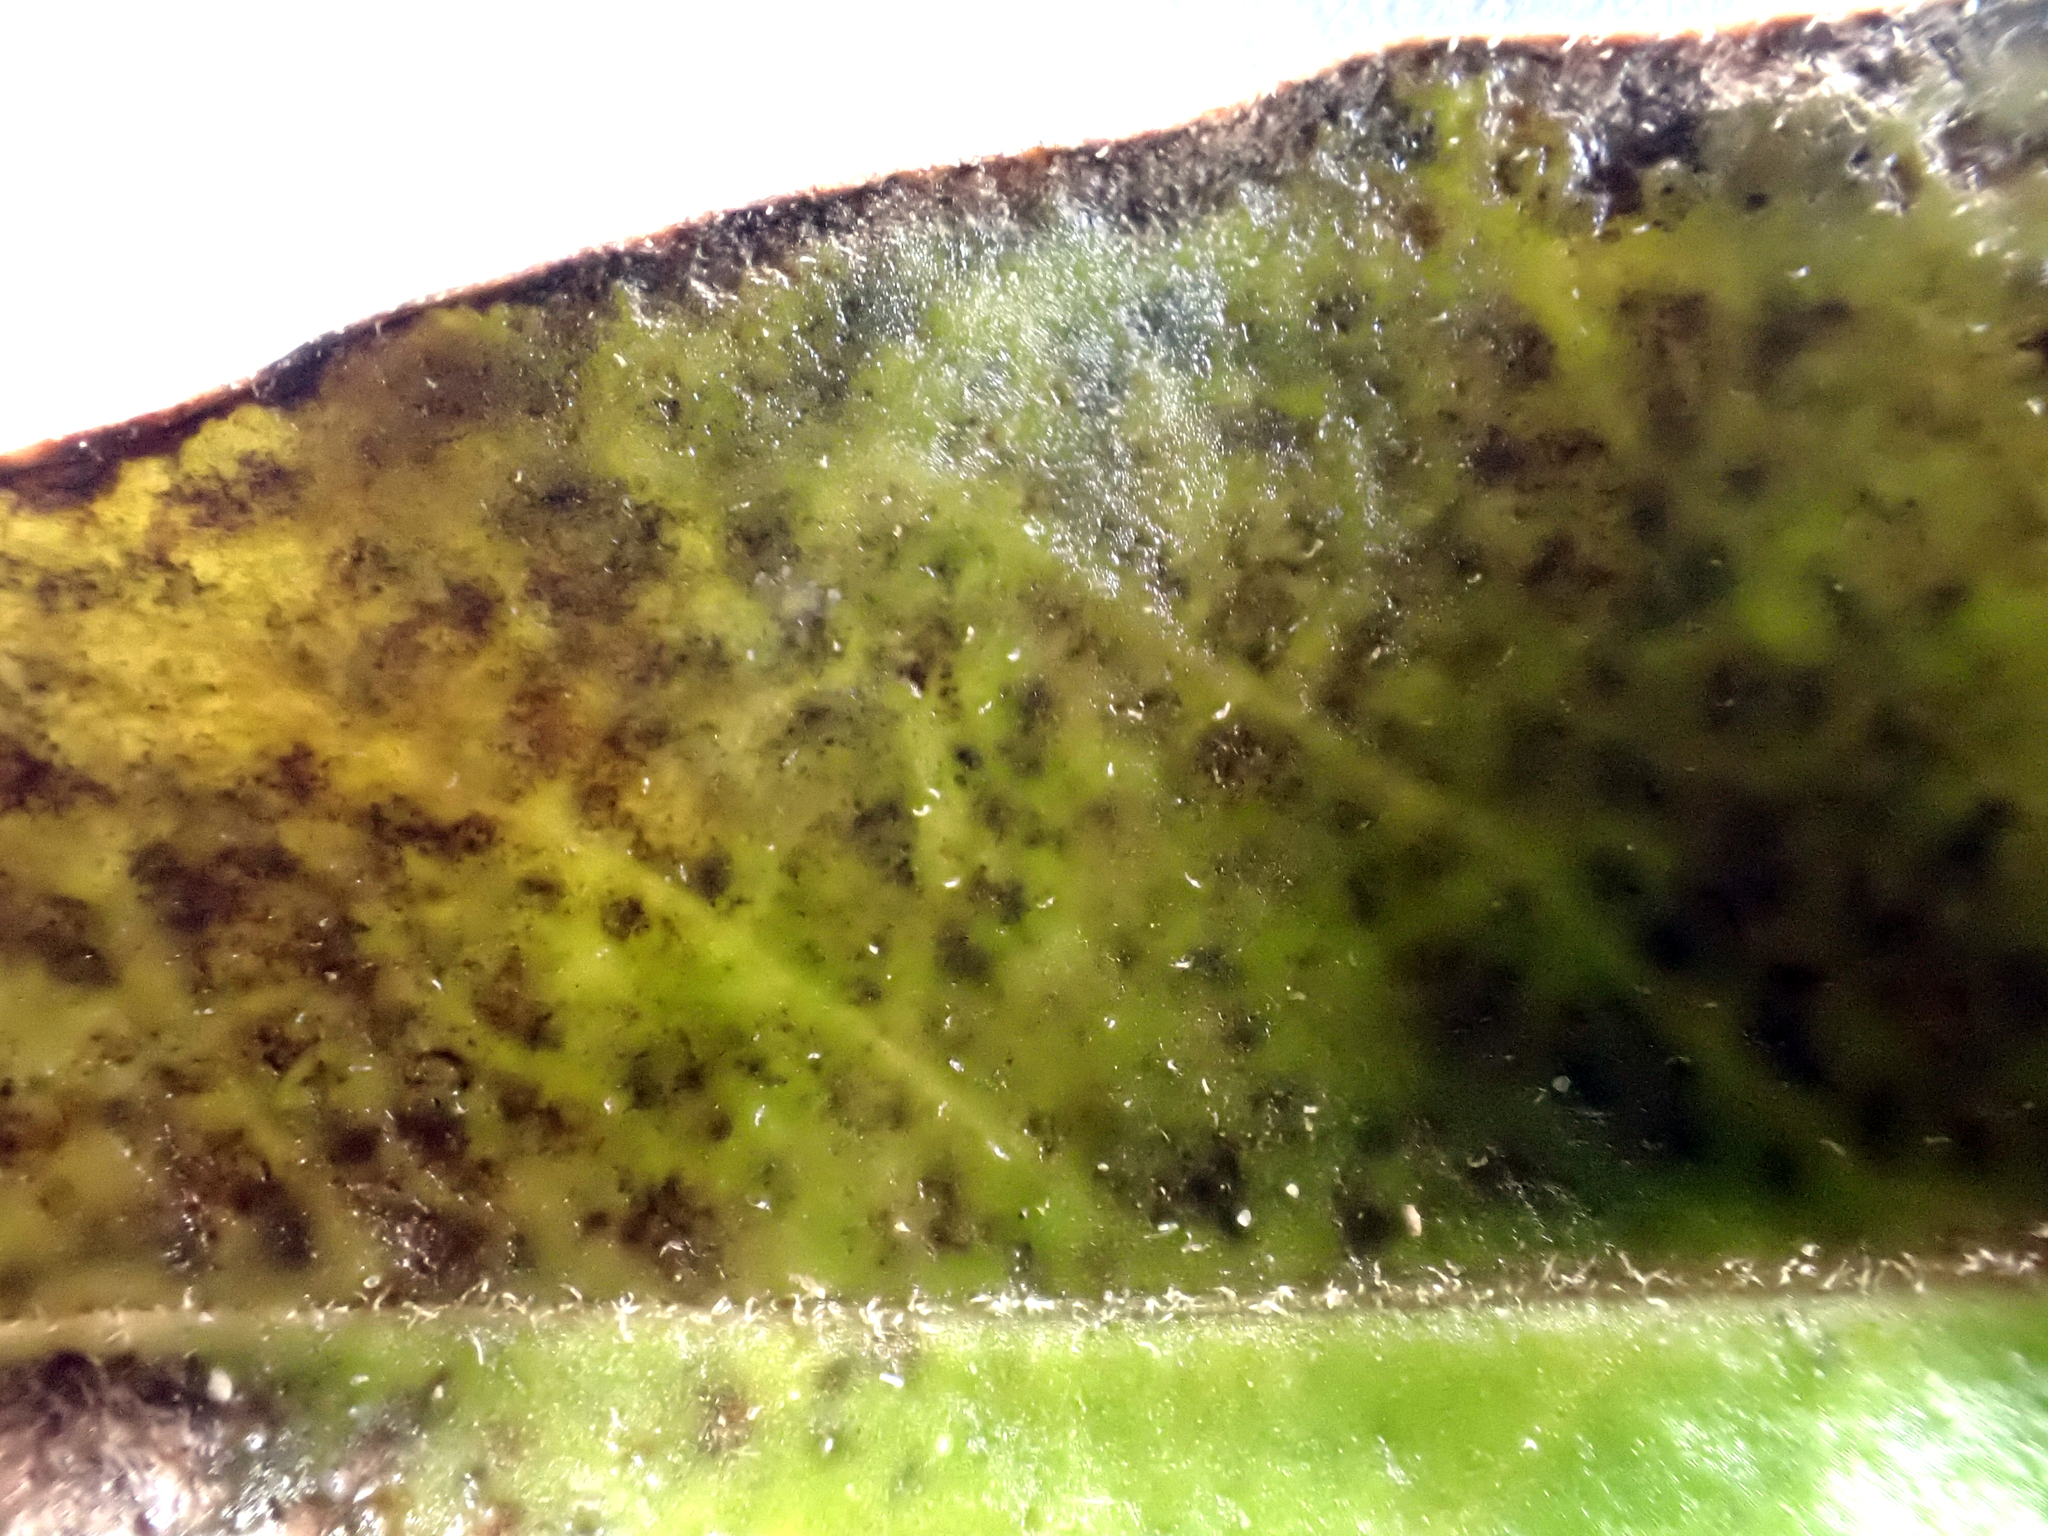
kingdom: Chromista
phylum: Oomycota
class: Peronosporea
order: Peronosporales
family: Peronosporaceae
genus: Peronospora
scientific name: Peronospora grisea
